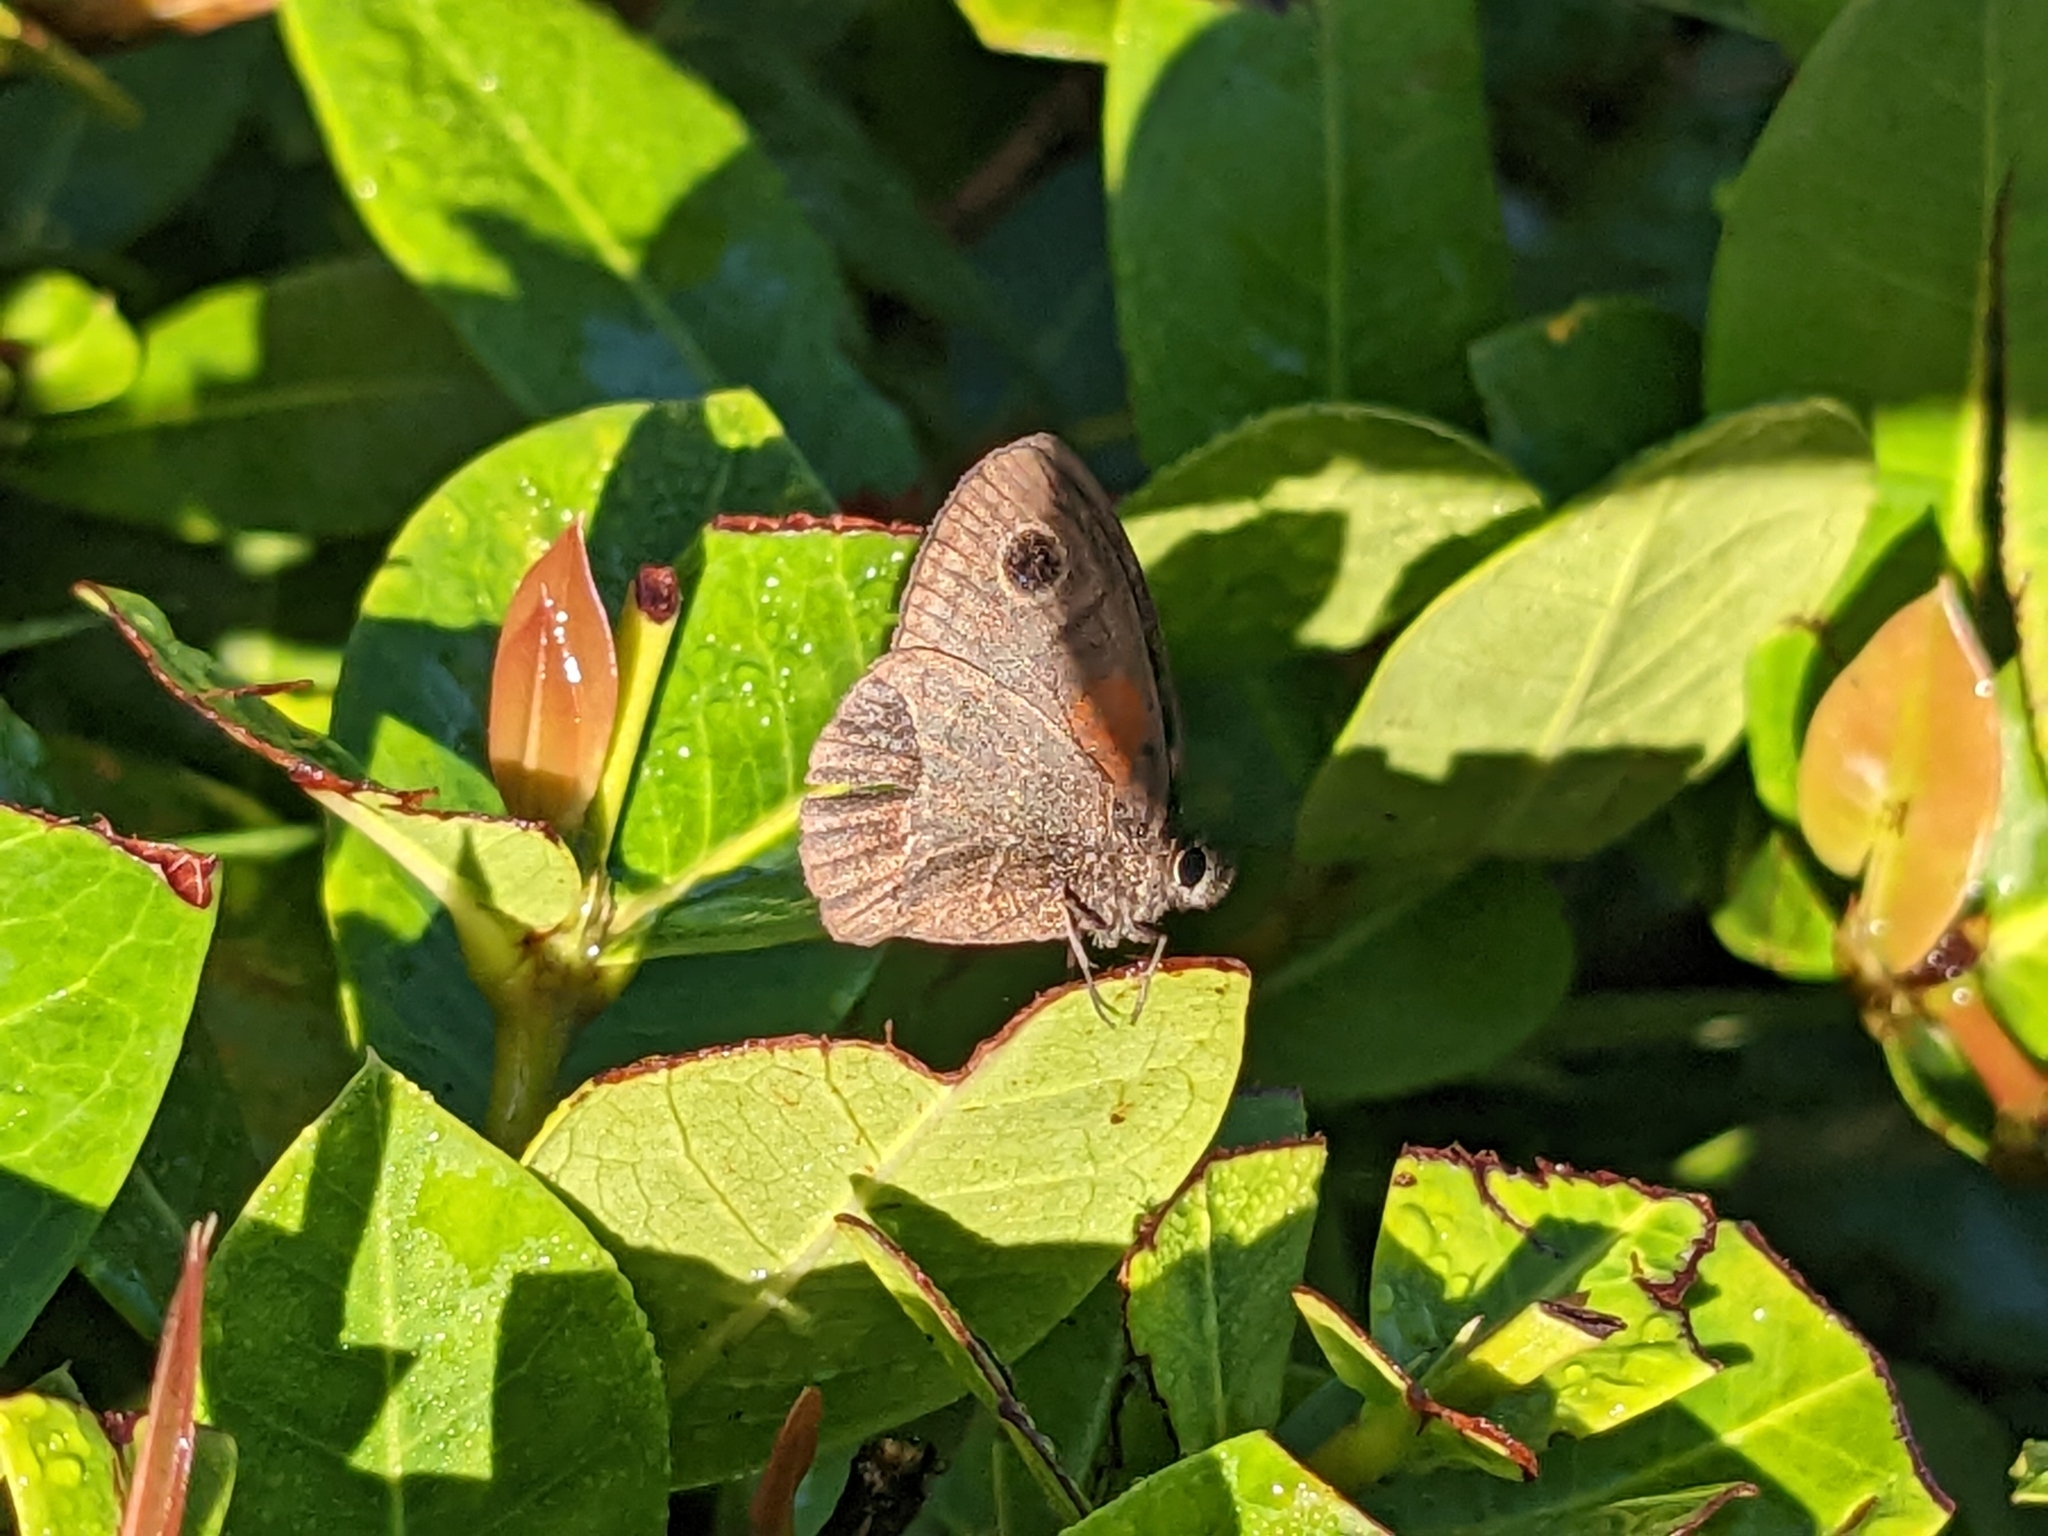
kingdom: Animalia
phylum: Arthropoda
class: Insecta
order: Lepidoptera
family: Nymphalidae
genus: Calisto
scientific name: Calisto obscura
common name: Obscure calisto
